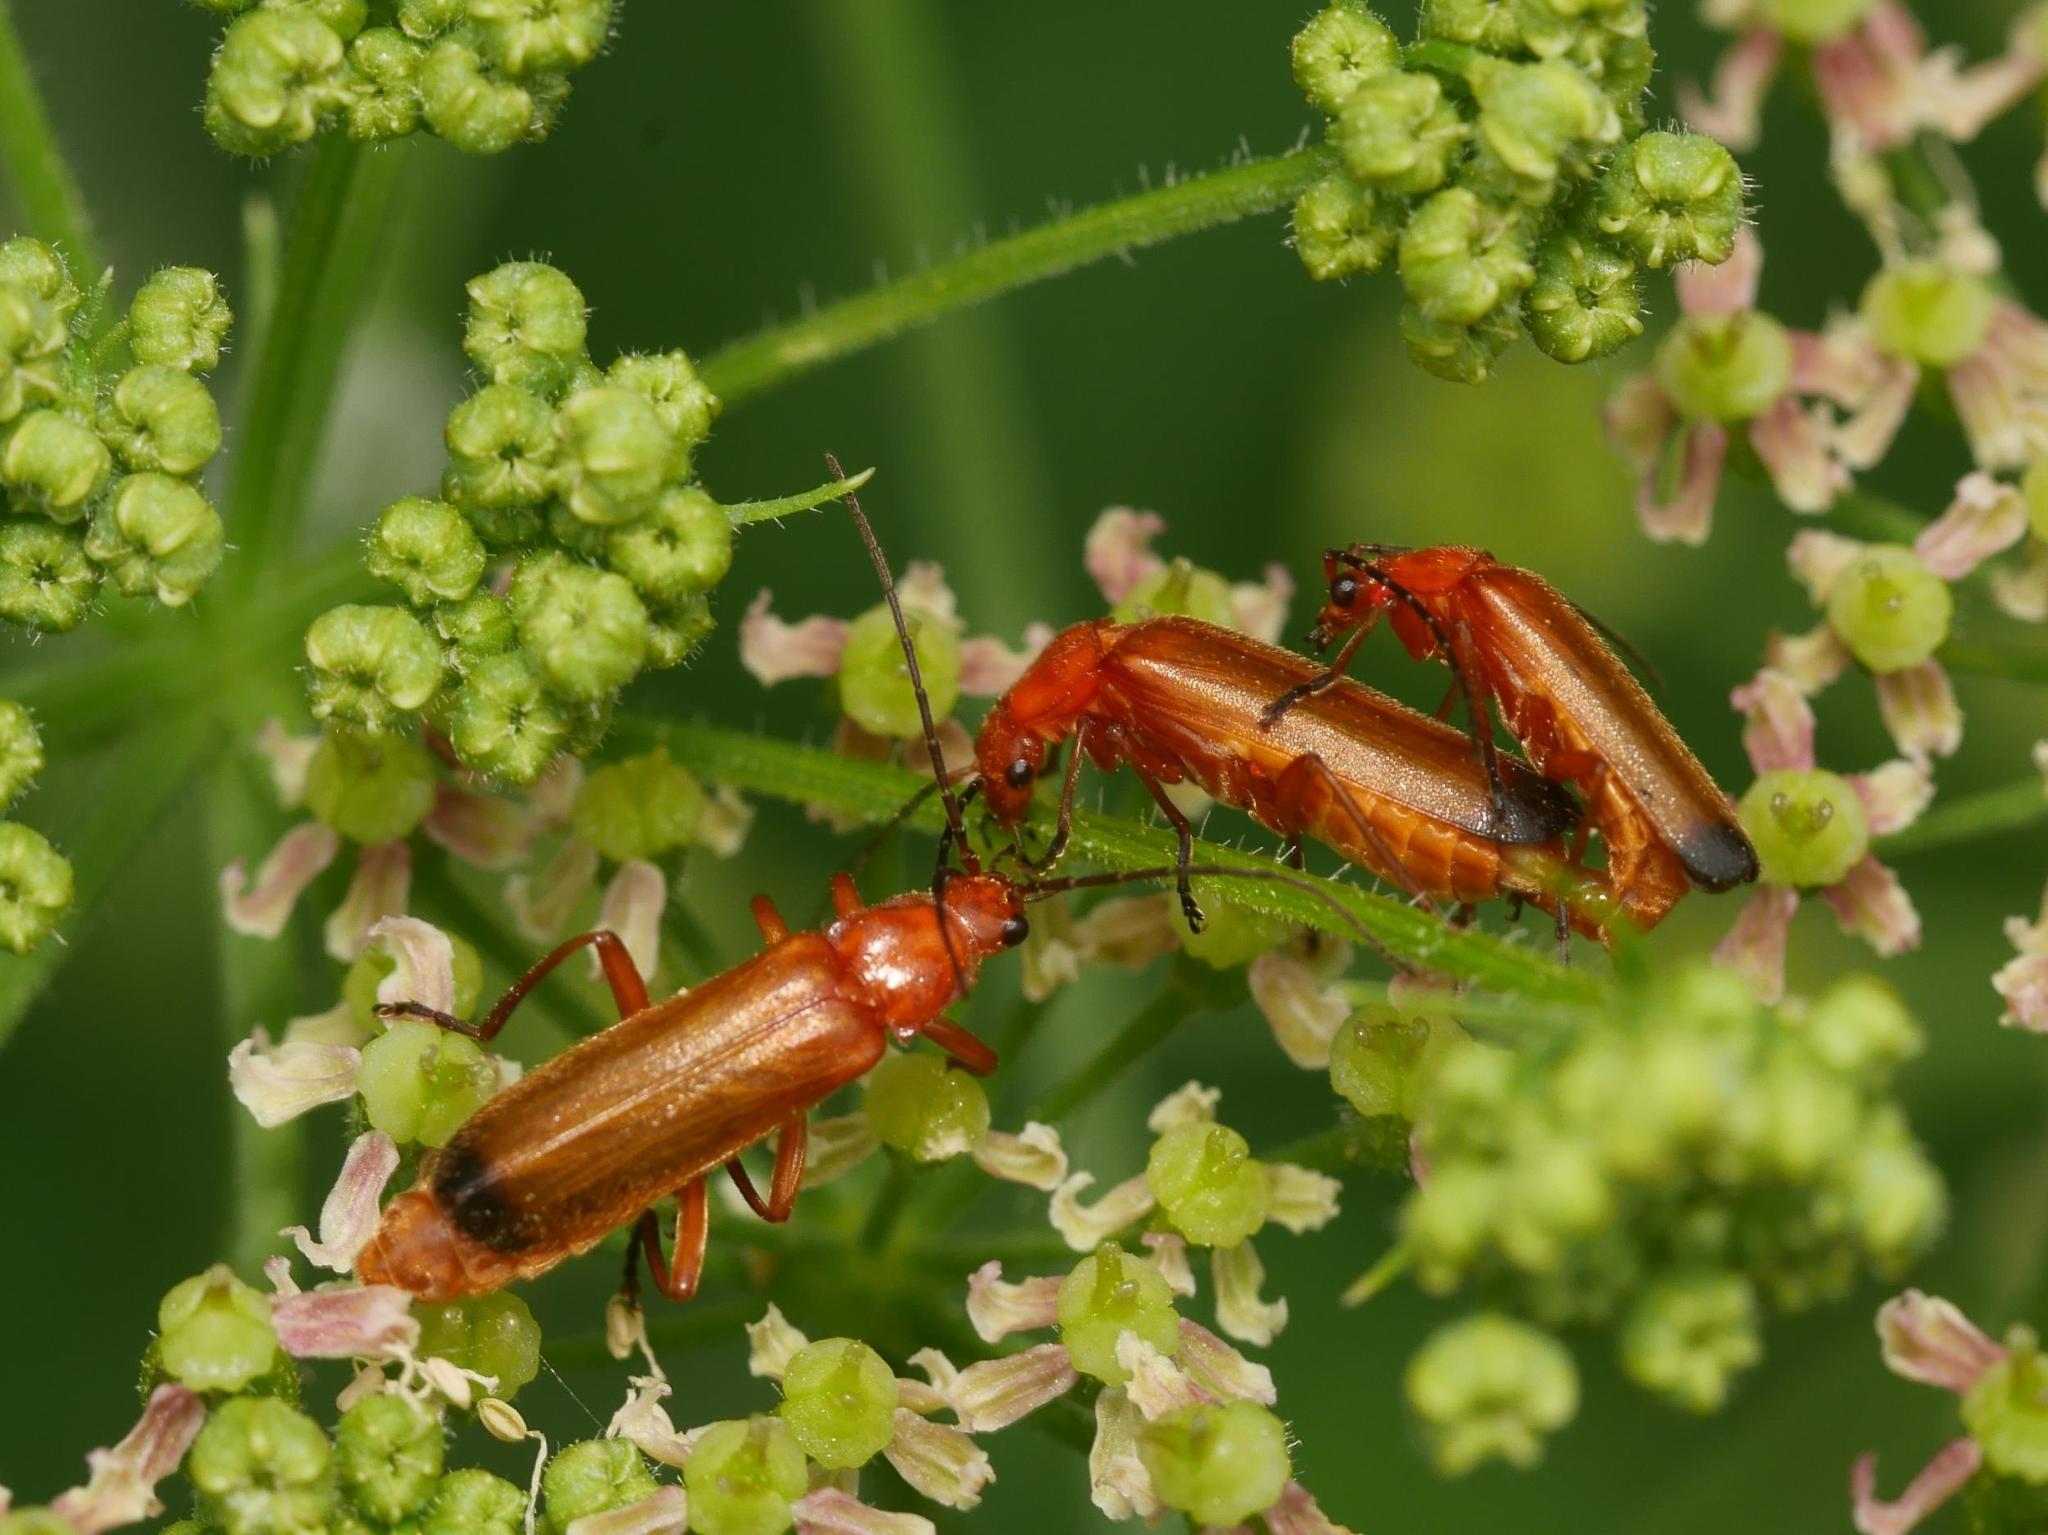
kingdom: Animalia
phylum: Arthropoda
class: Insecta
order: Coleoptera
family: Cantharidae
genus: Rhagonycha
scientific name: Rhagonycha fulva
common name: Common red soldier beetle
